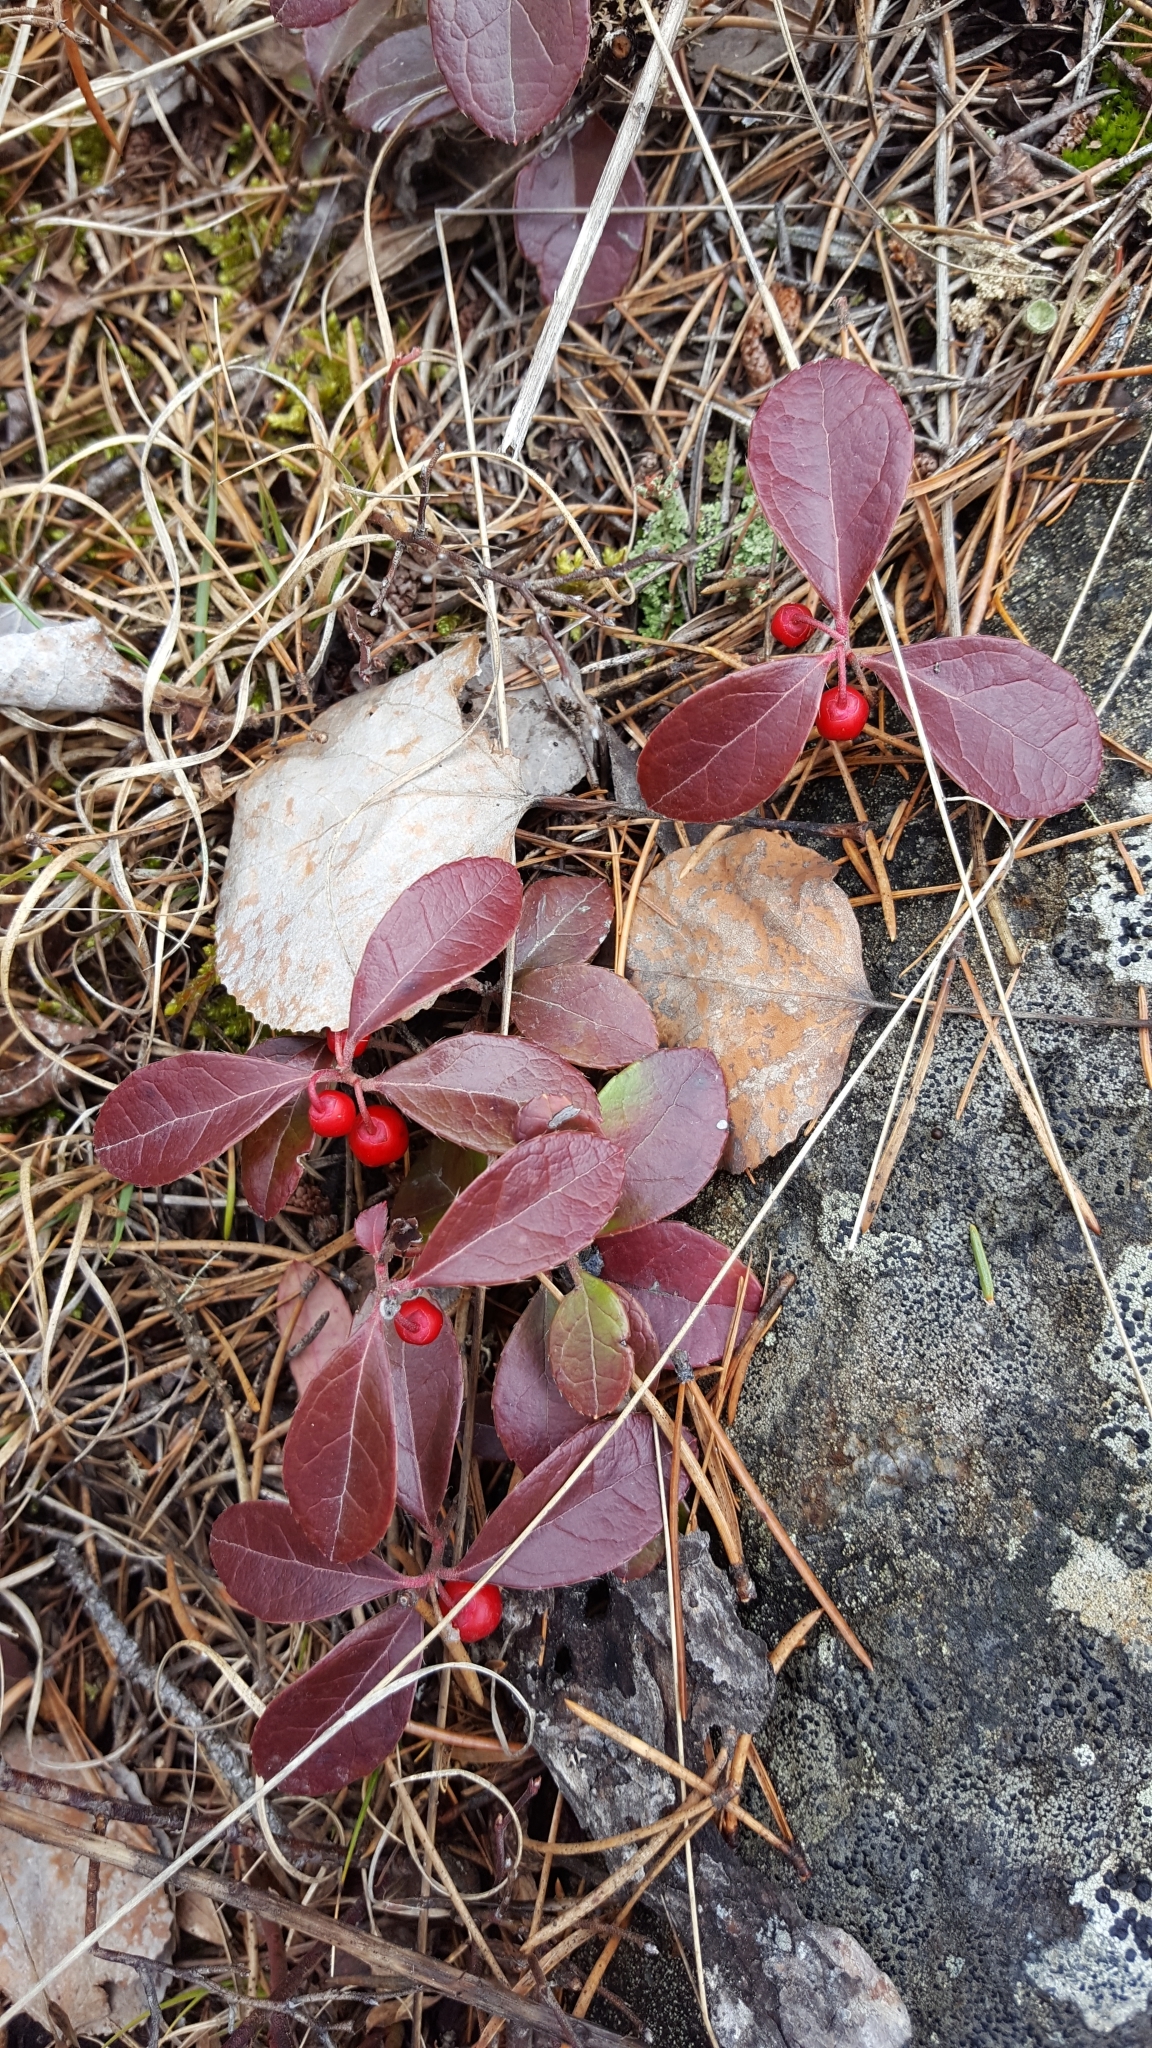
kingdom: Plantae
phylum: Tracheophyta
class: Magnoliopsida
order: Ericales
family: Ericaceae
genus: Gaultheria
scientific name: Gaultheria procumbens
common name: Checkerberry
